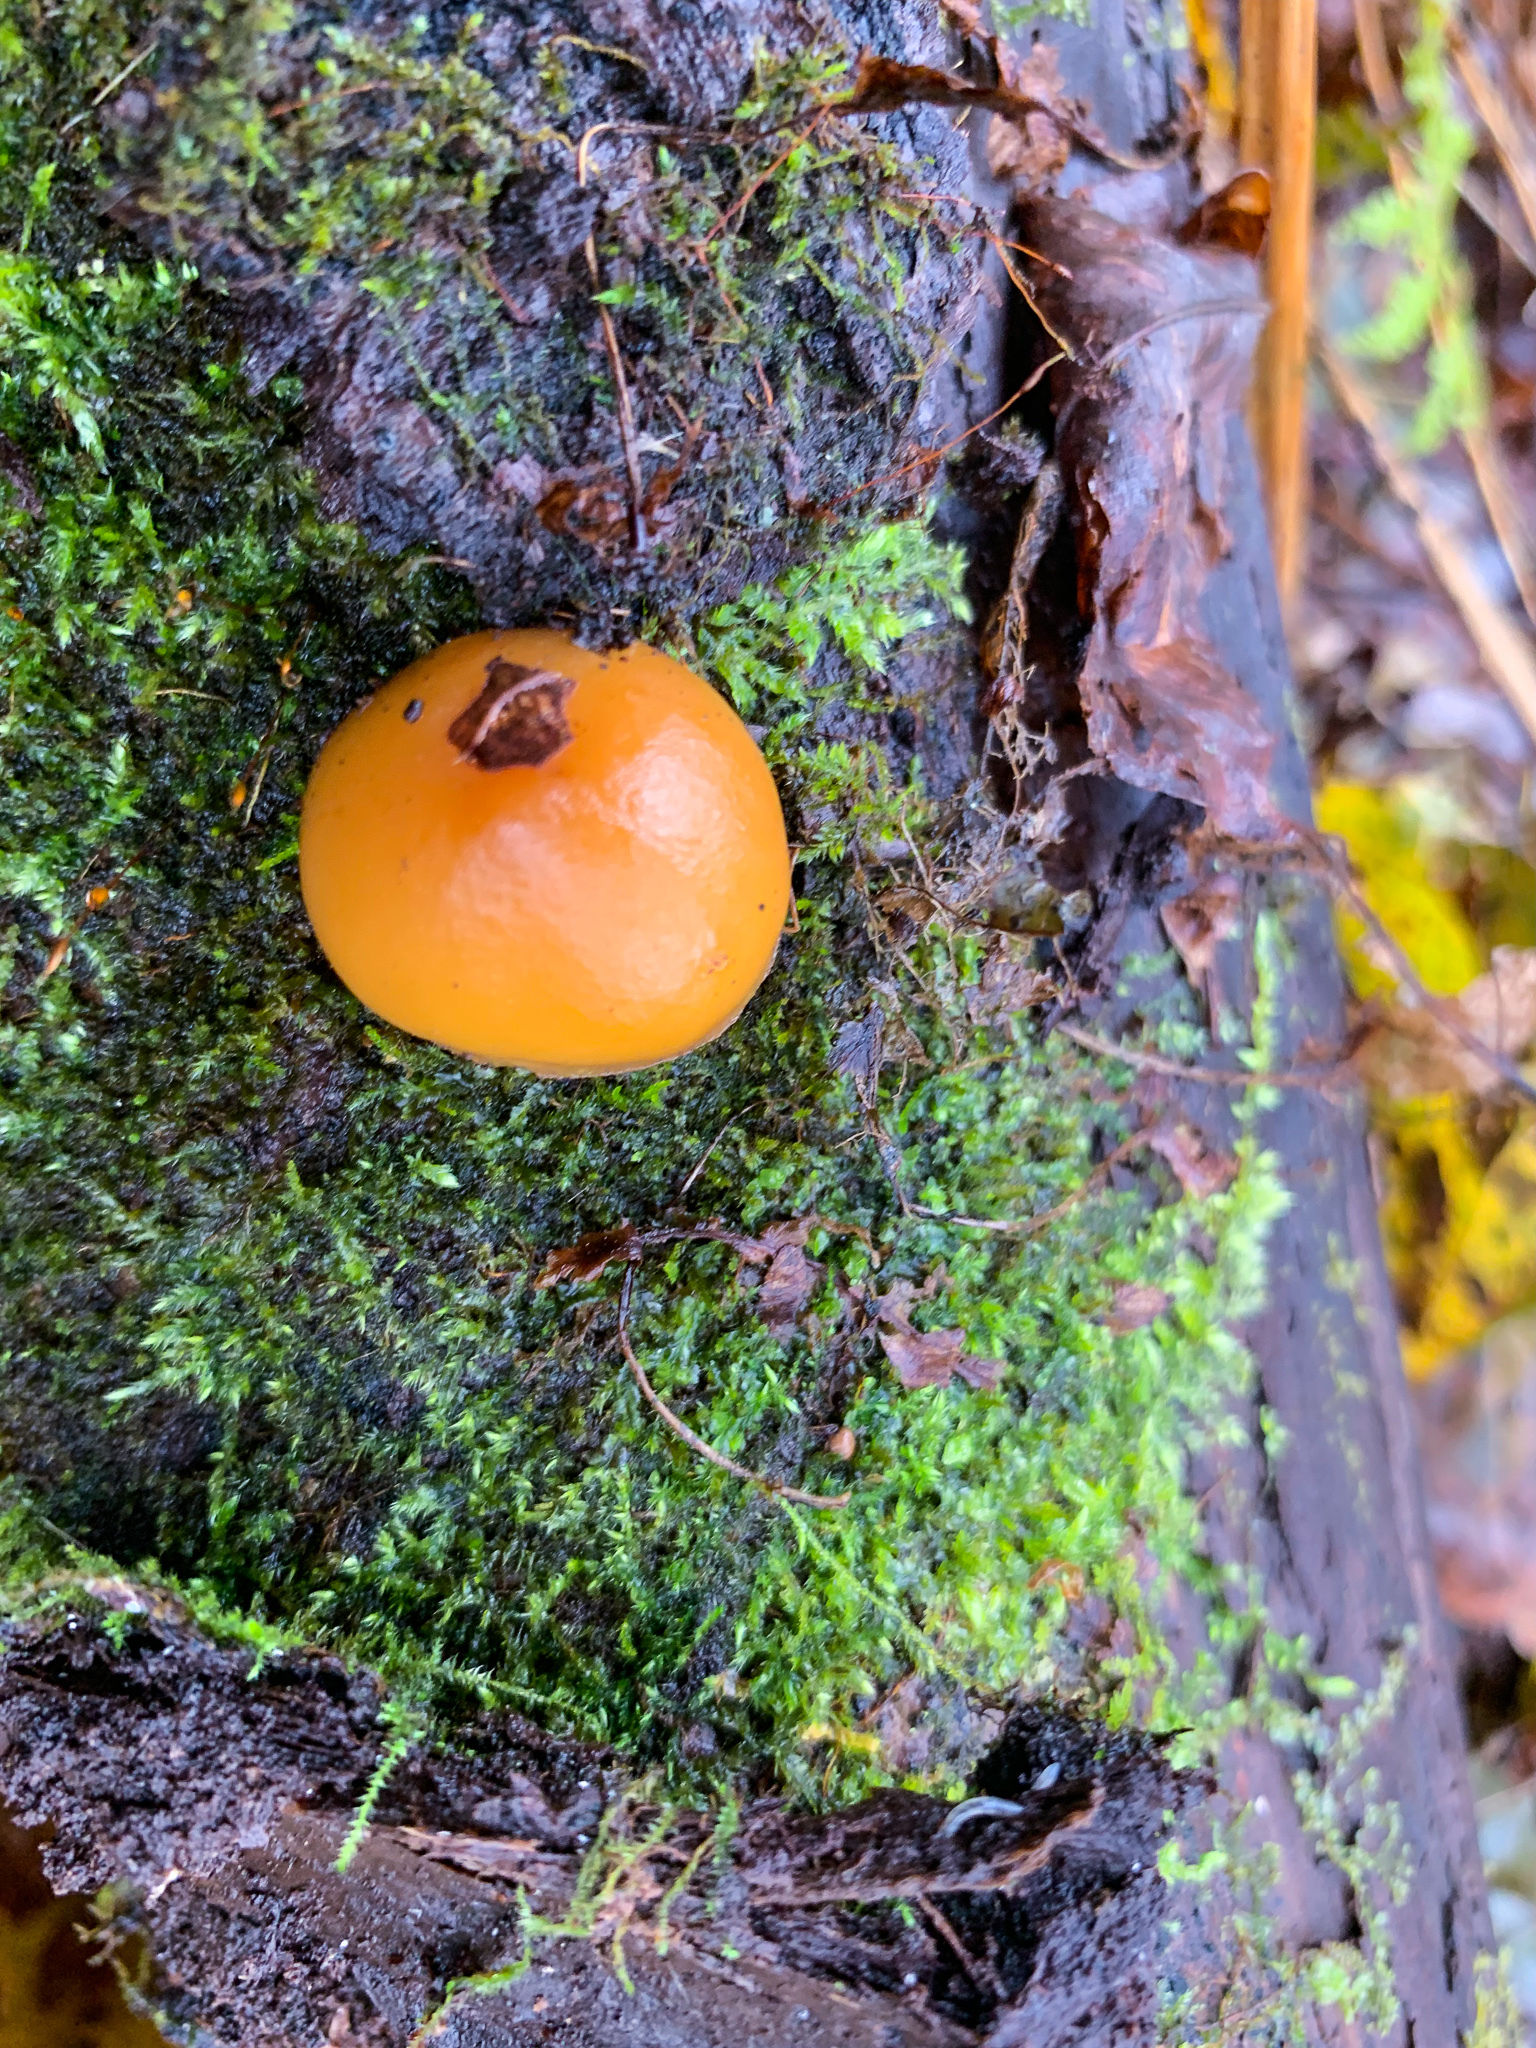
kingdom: Fungi
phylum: Basidiomycota
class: Agaricomycetes
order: Agaricales
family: Hymenogastraceae
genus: Galerina
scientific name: Galerina marginata
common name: Funeral bell
